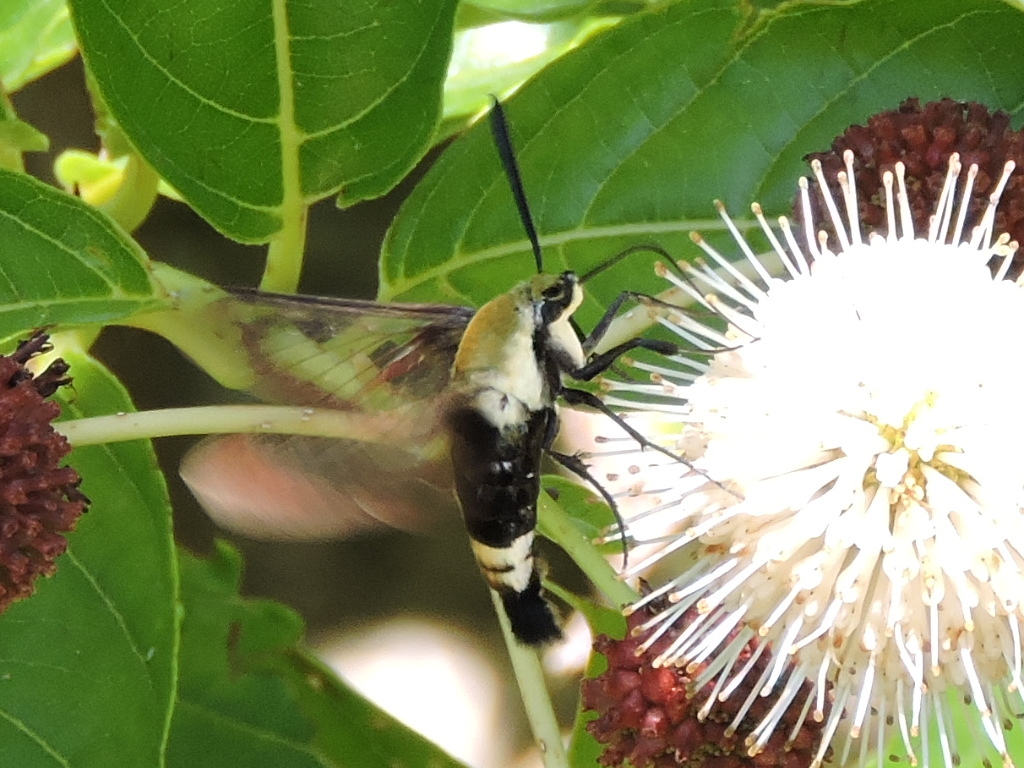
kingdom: Animalia
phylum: Arthropoda
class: Insecta
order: Lepidoptera
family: Sphingidae
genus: Hemaris
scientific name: Hemaris diffinis
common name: Bumblebee moth
